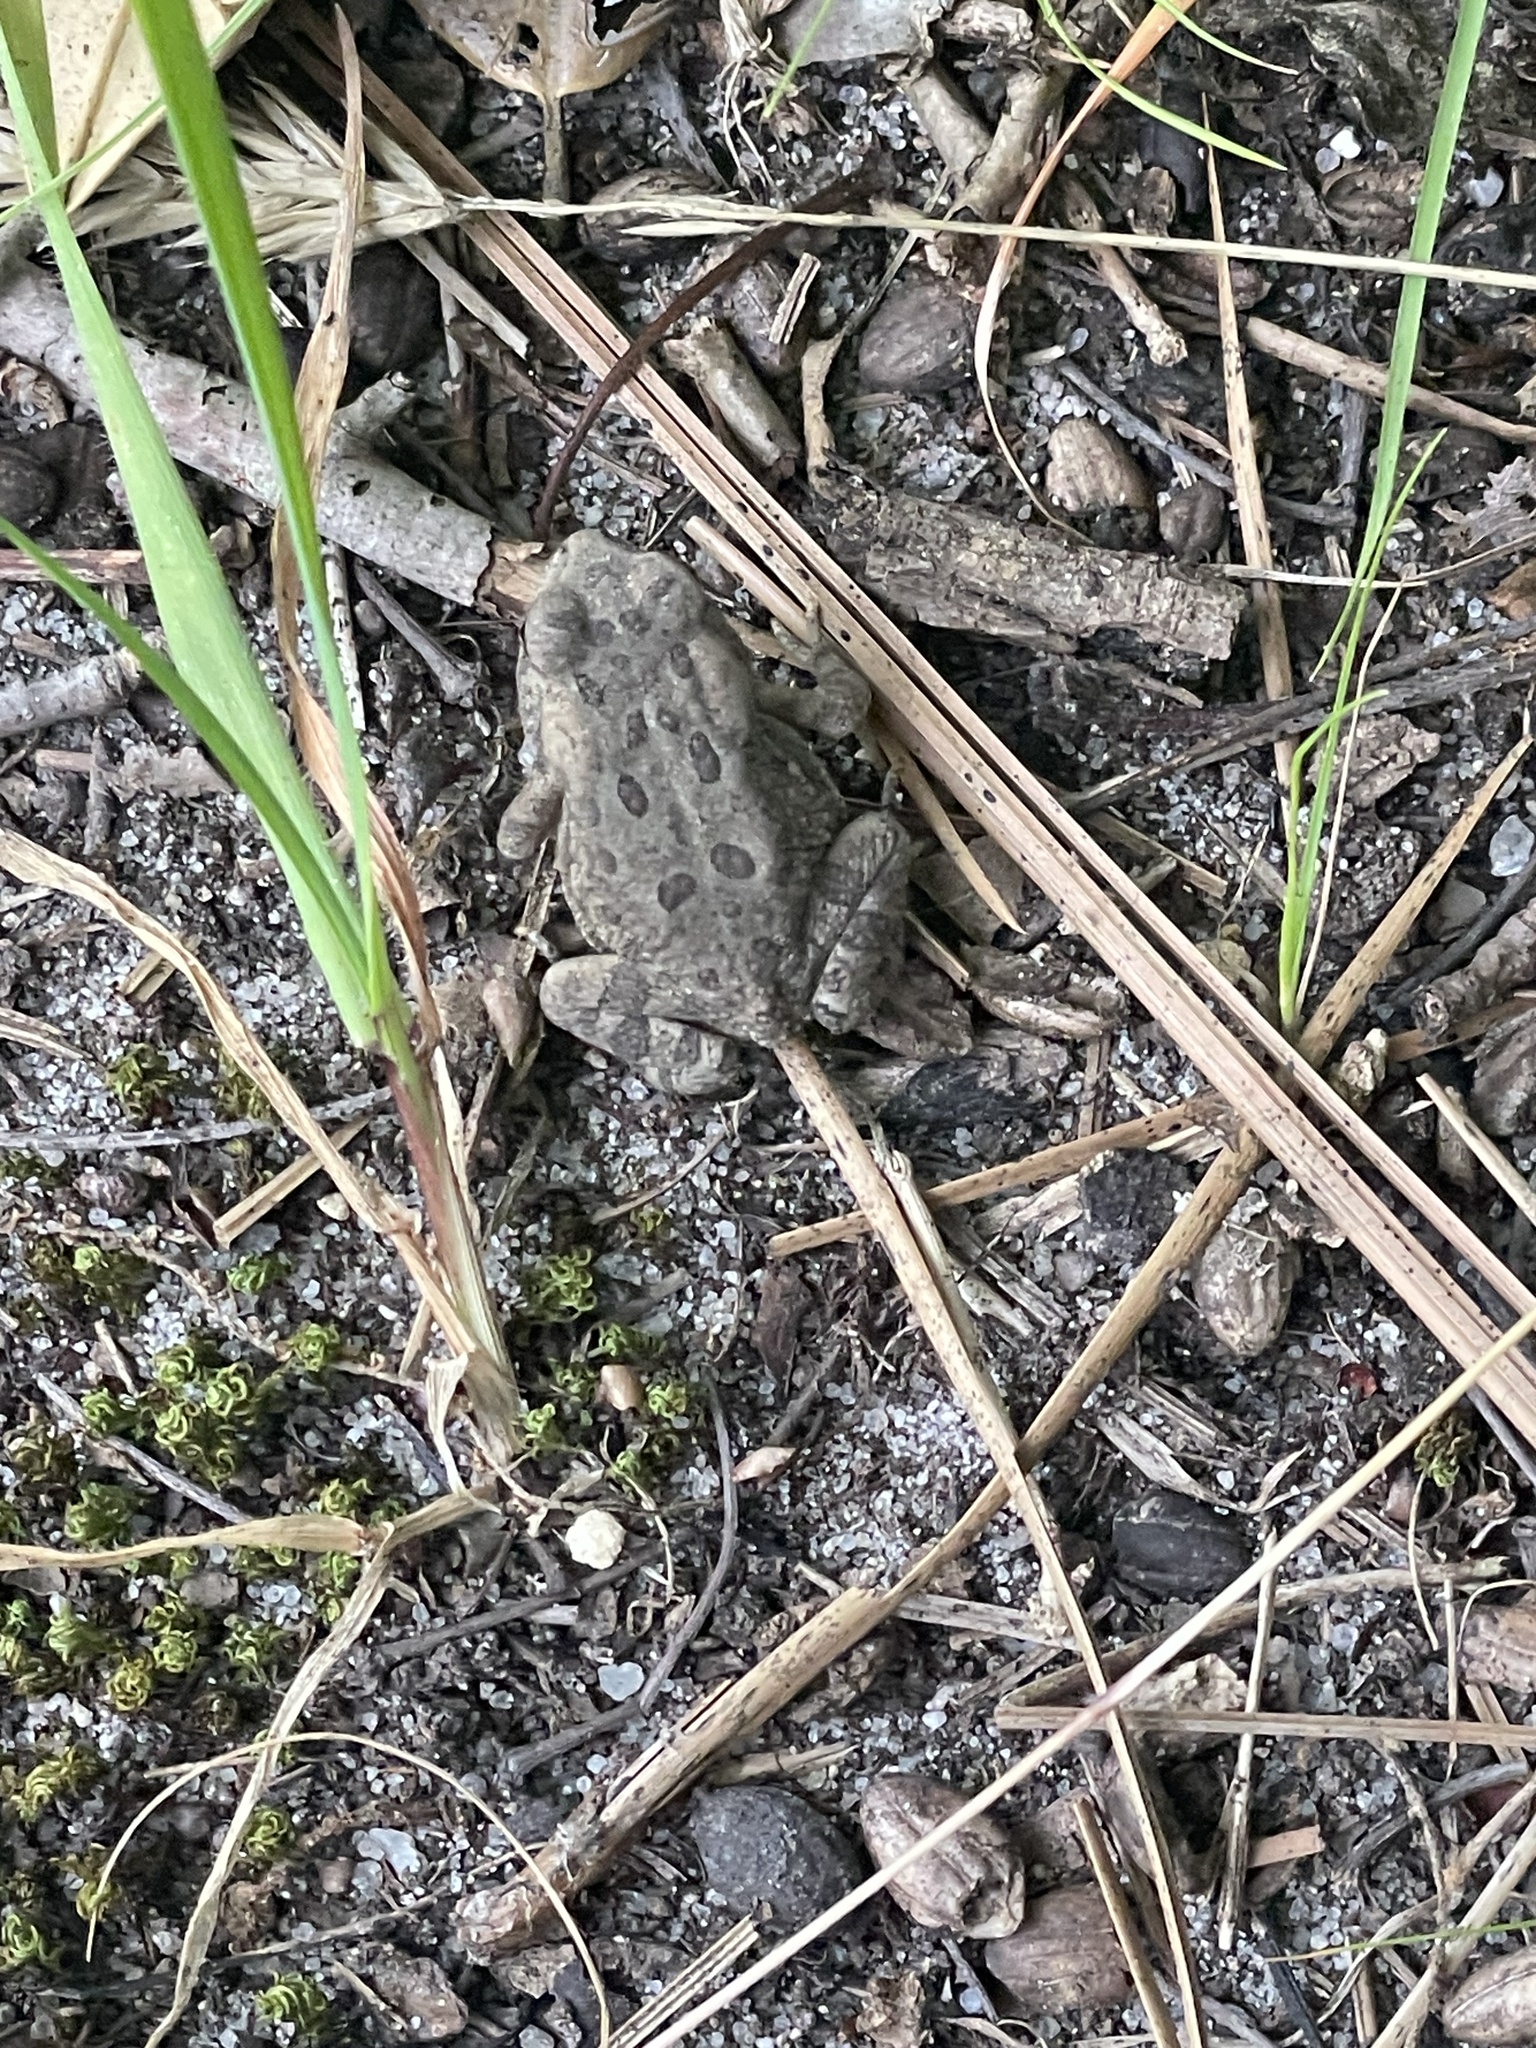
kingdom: Animalia
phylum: Chordata
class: Amphibia
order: Anura
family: Bufonidae
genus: Anaxyrus
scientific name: Anaxyrus fowleri
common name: Fowler's toad
